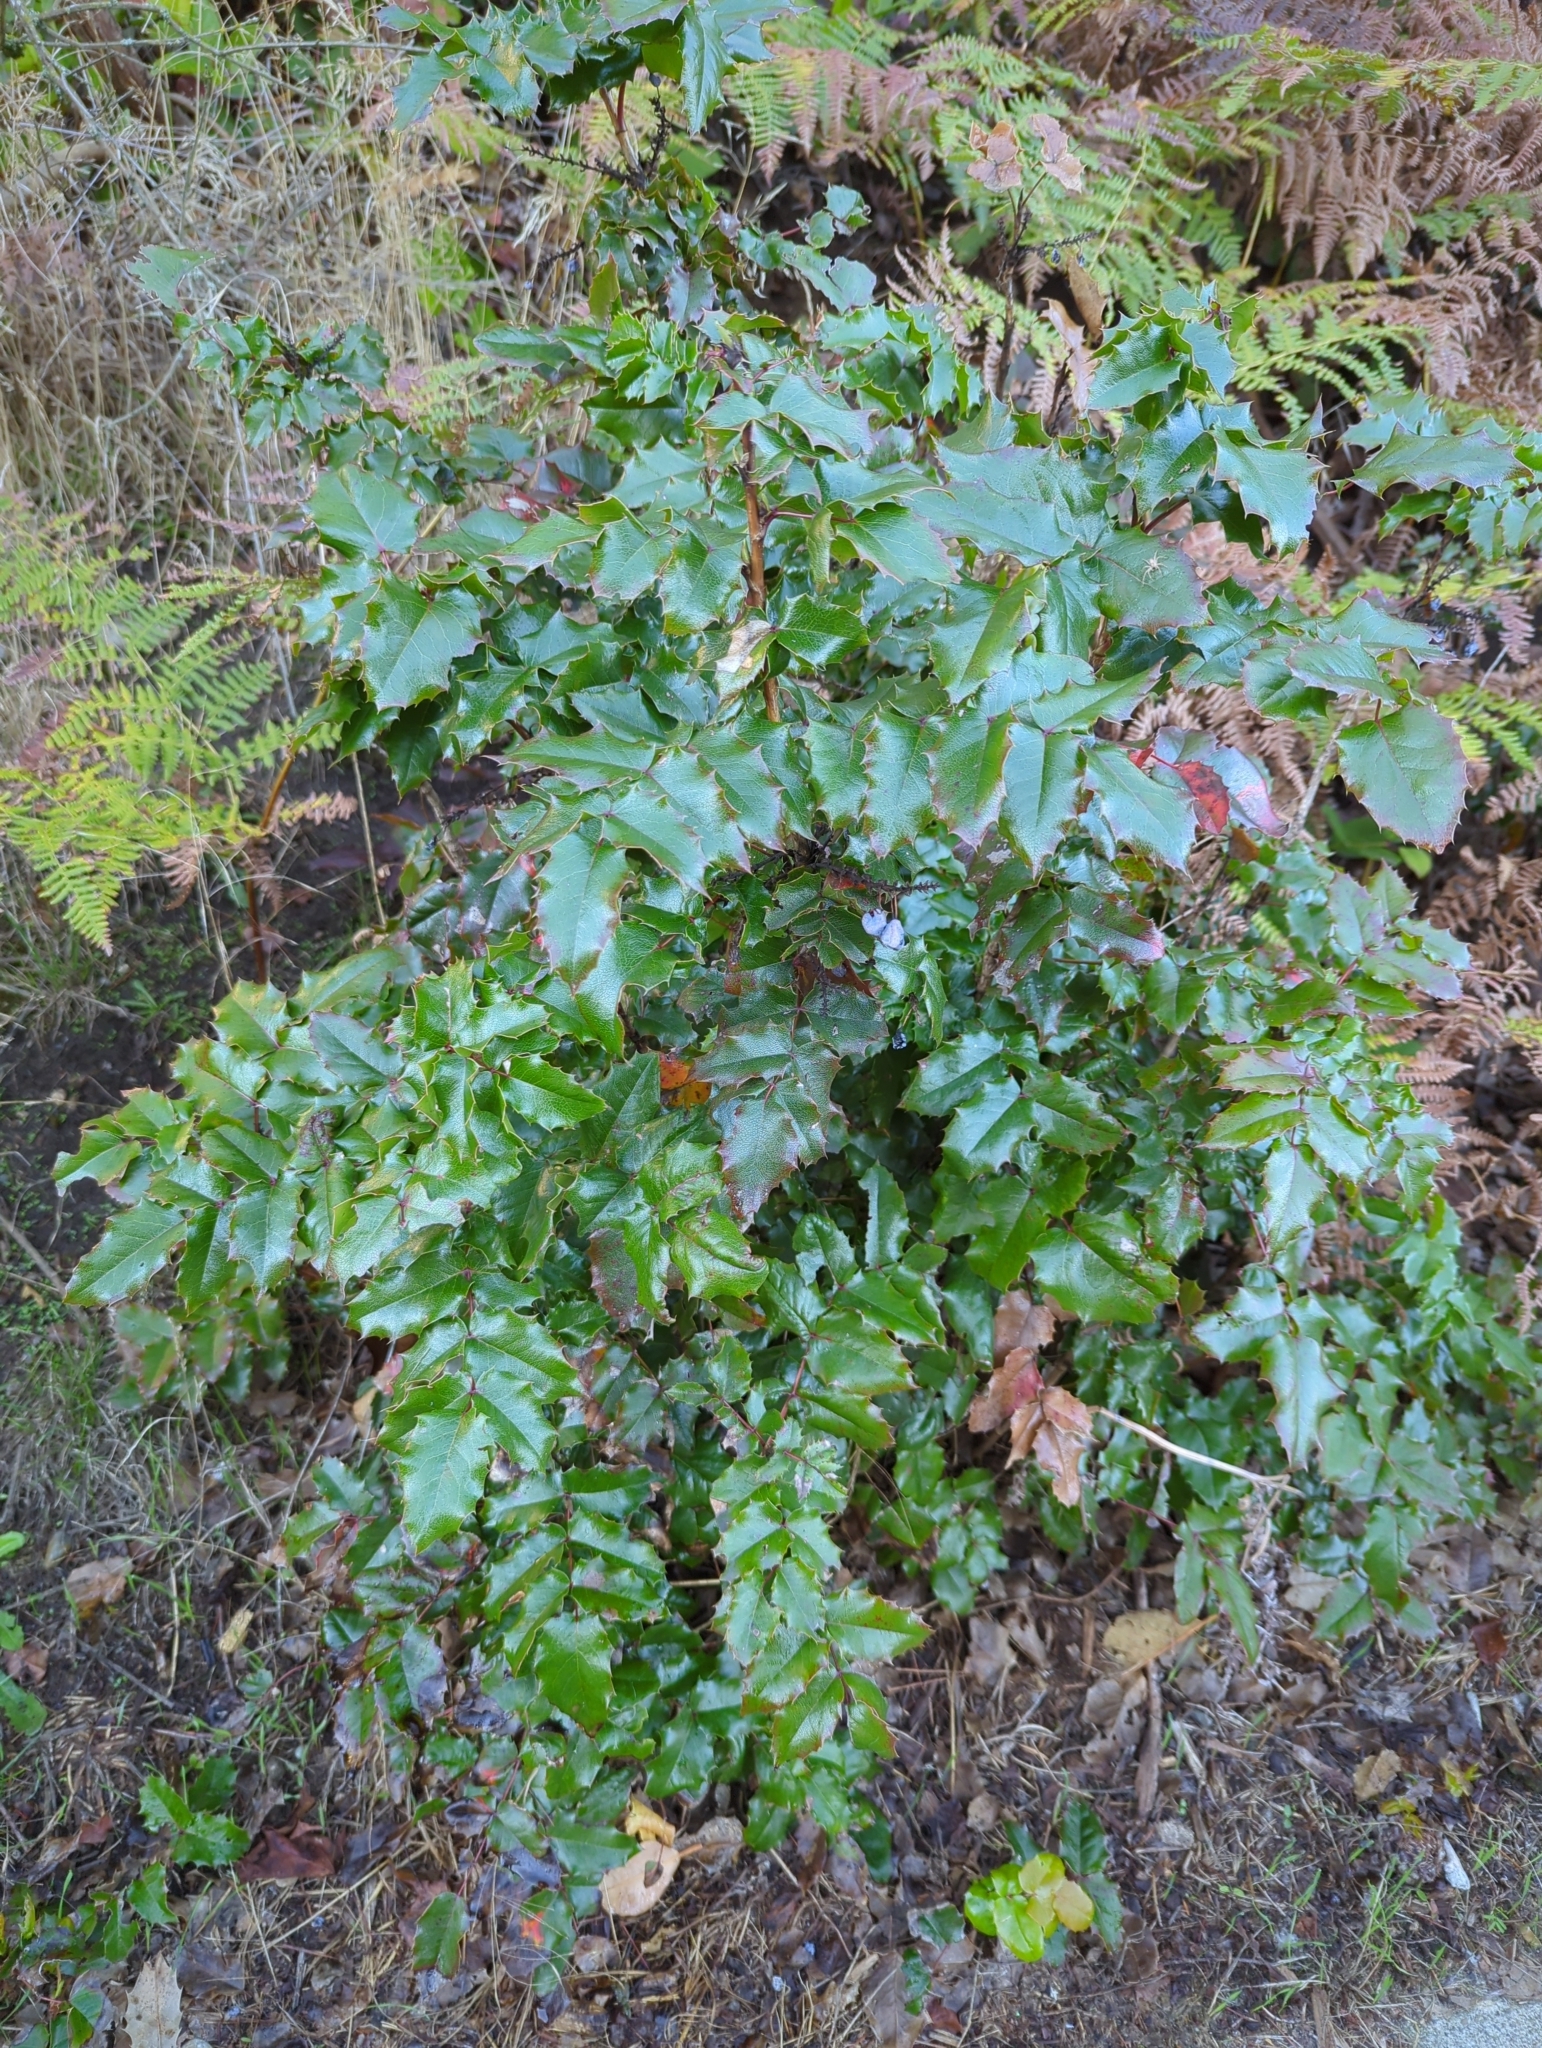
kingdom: Plantae
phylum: Tracheophyta
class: Magnoliopsida
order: Ranunculales
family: Berberidaceae
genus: Mahonia
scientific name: Mahonia aquifolium
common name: Oregon-grape
